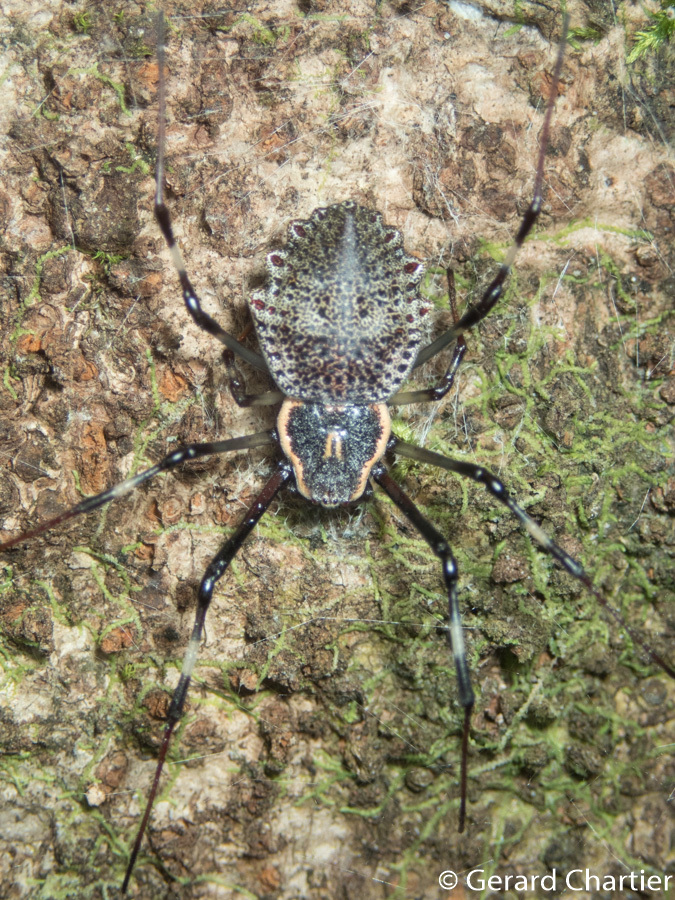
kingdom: Animalia
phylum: Arthropoda
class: Arachnida
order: Araneae
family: Araneidae
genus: Herennia
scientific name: Herennia multipuncta
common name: Spotted coin spider
